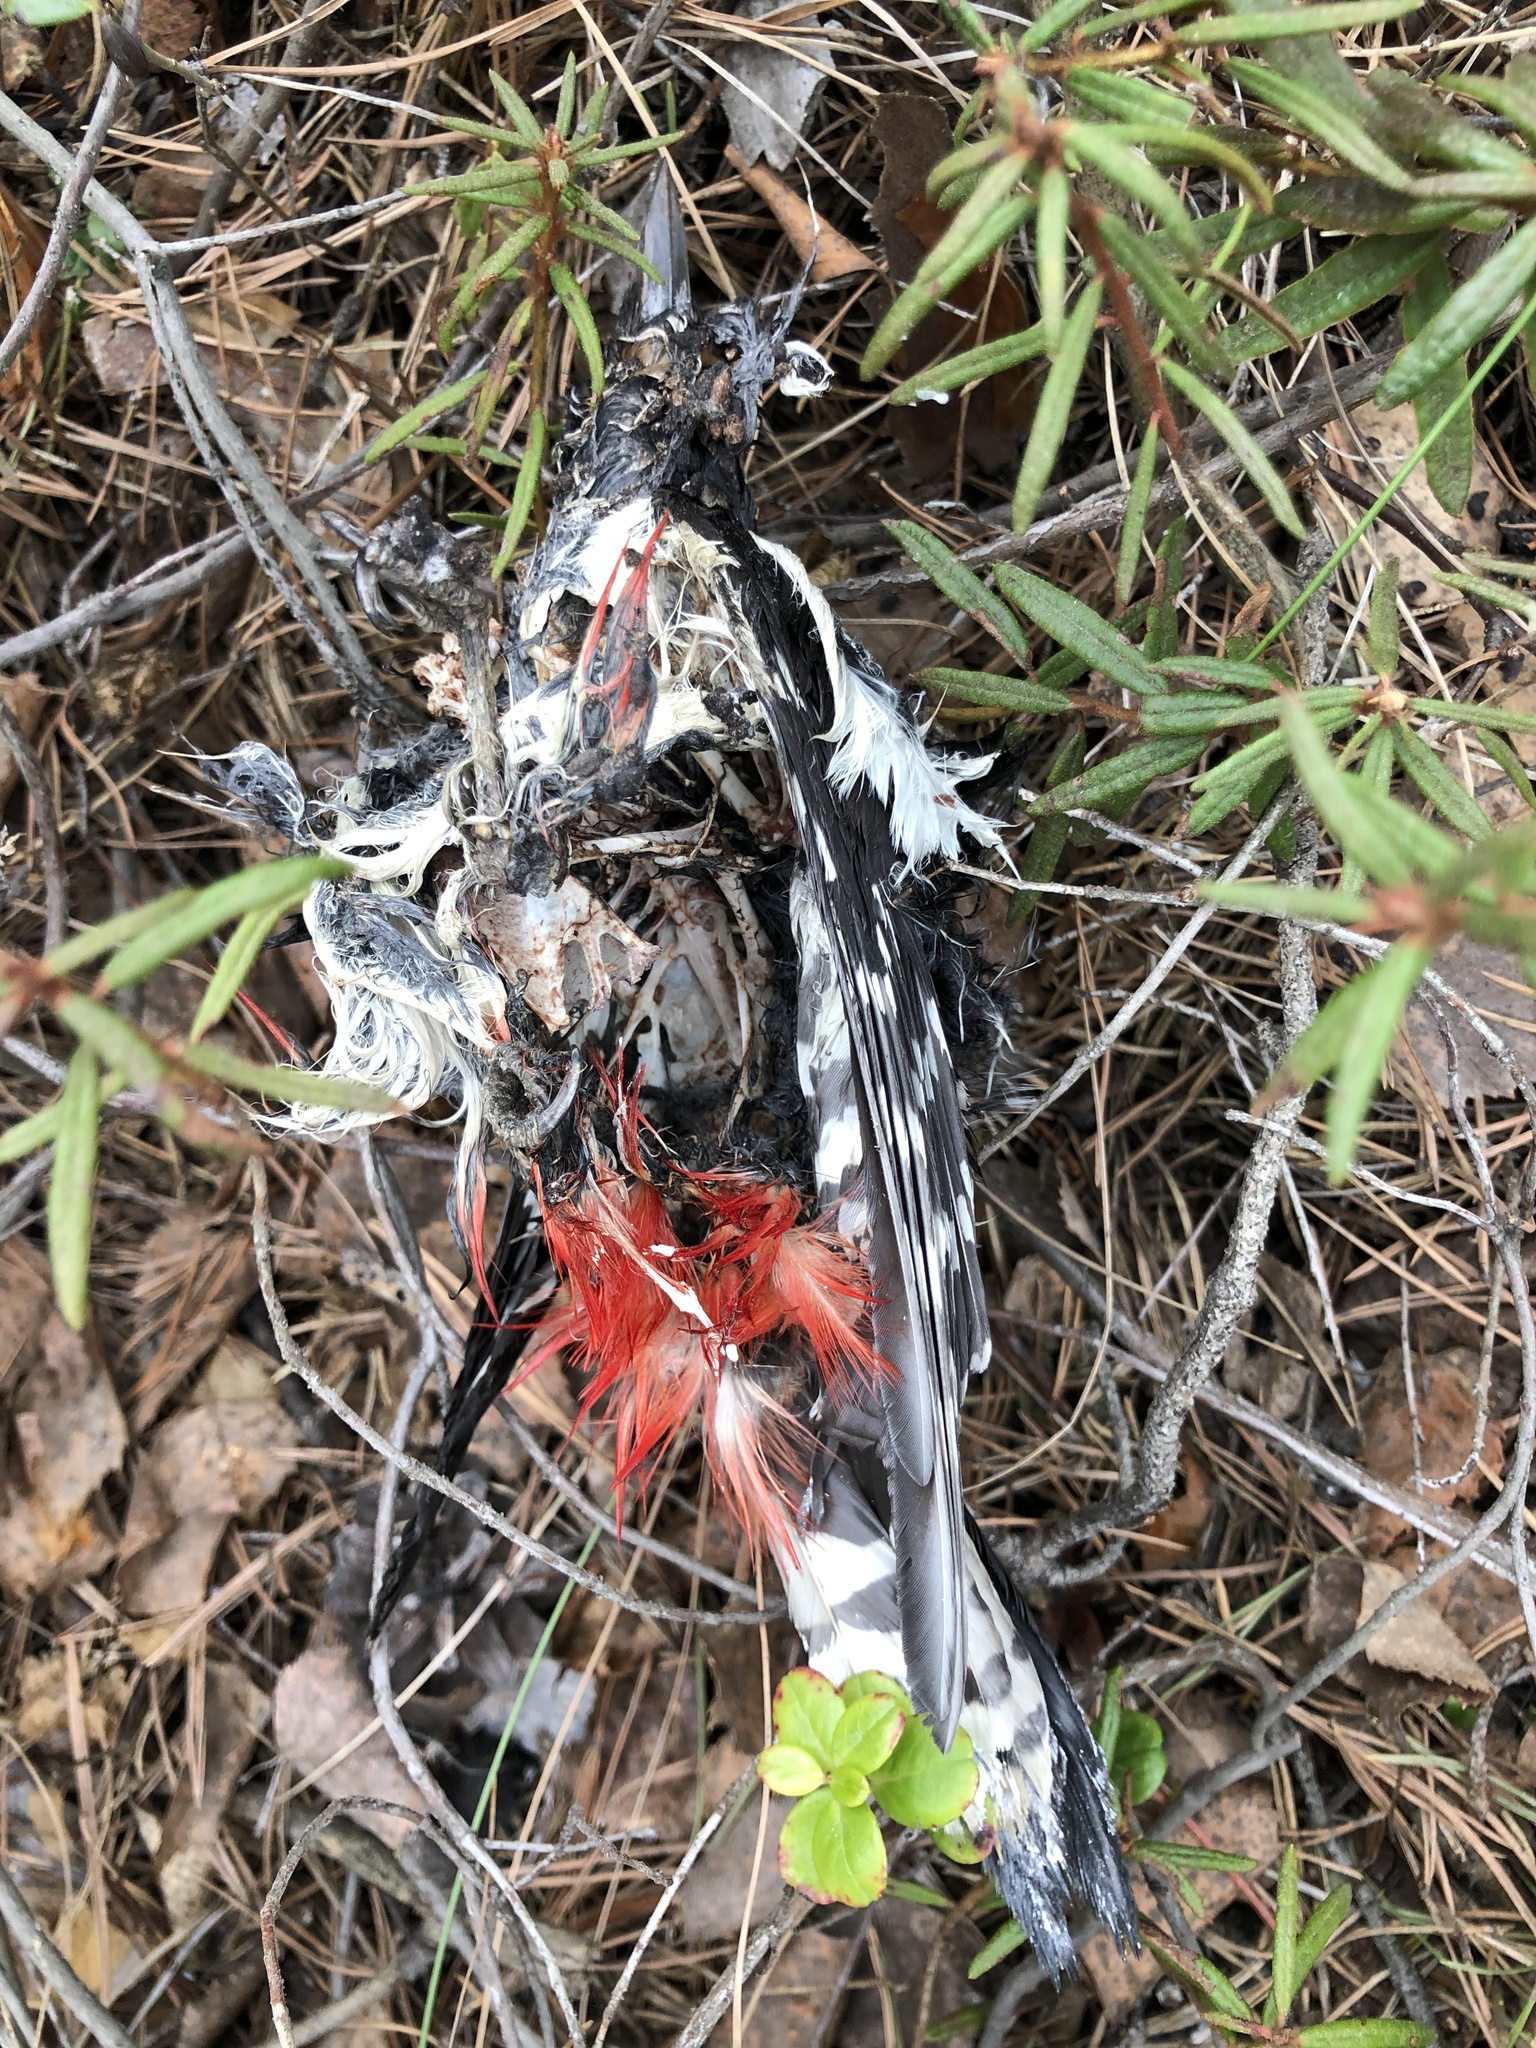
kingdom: Animalia
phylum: Chordata
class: Aves
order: Piciformes
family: Picidae
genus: Dendrocopos
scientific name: Dendrocopos major
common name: Great spotted woodpecker
